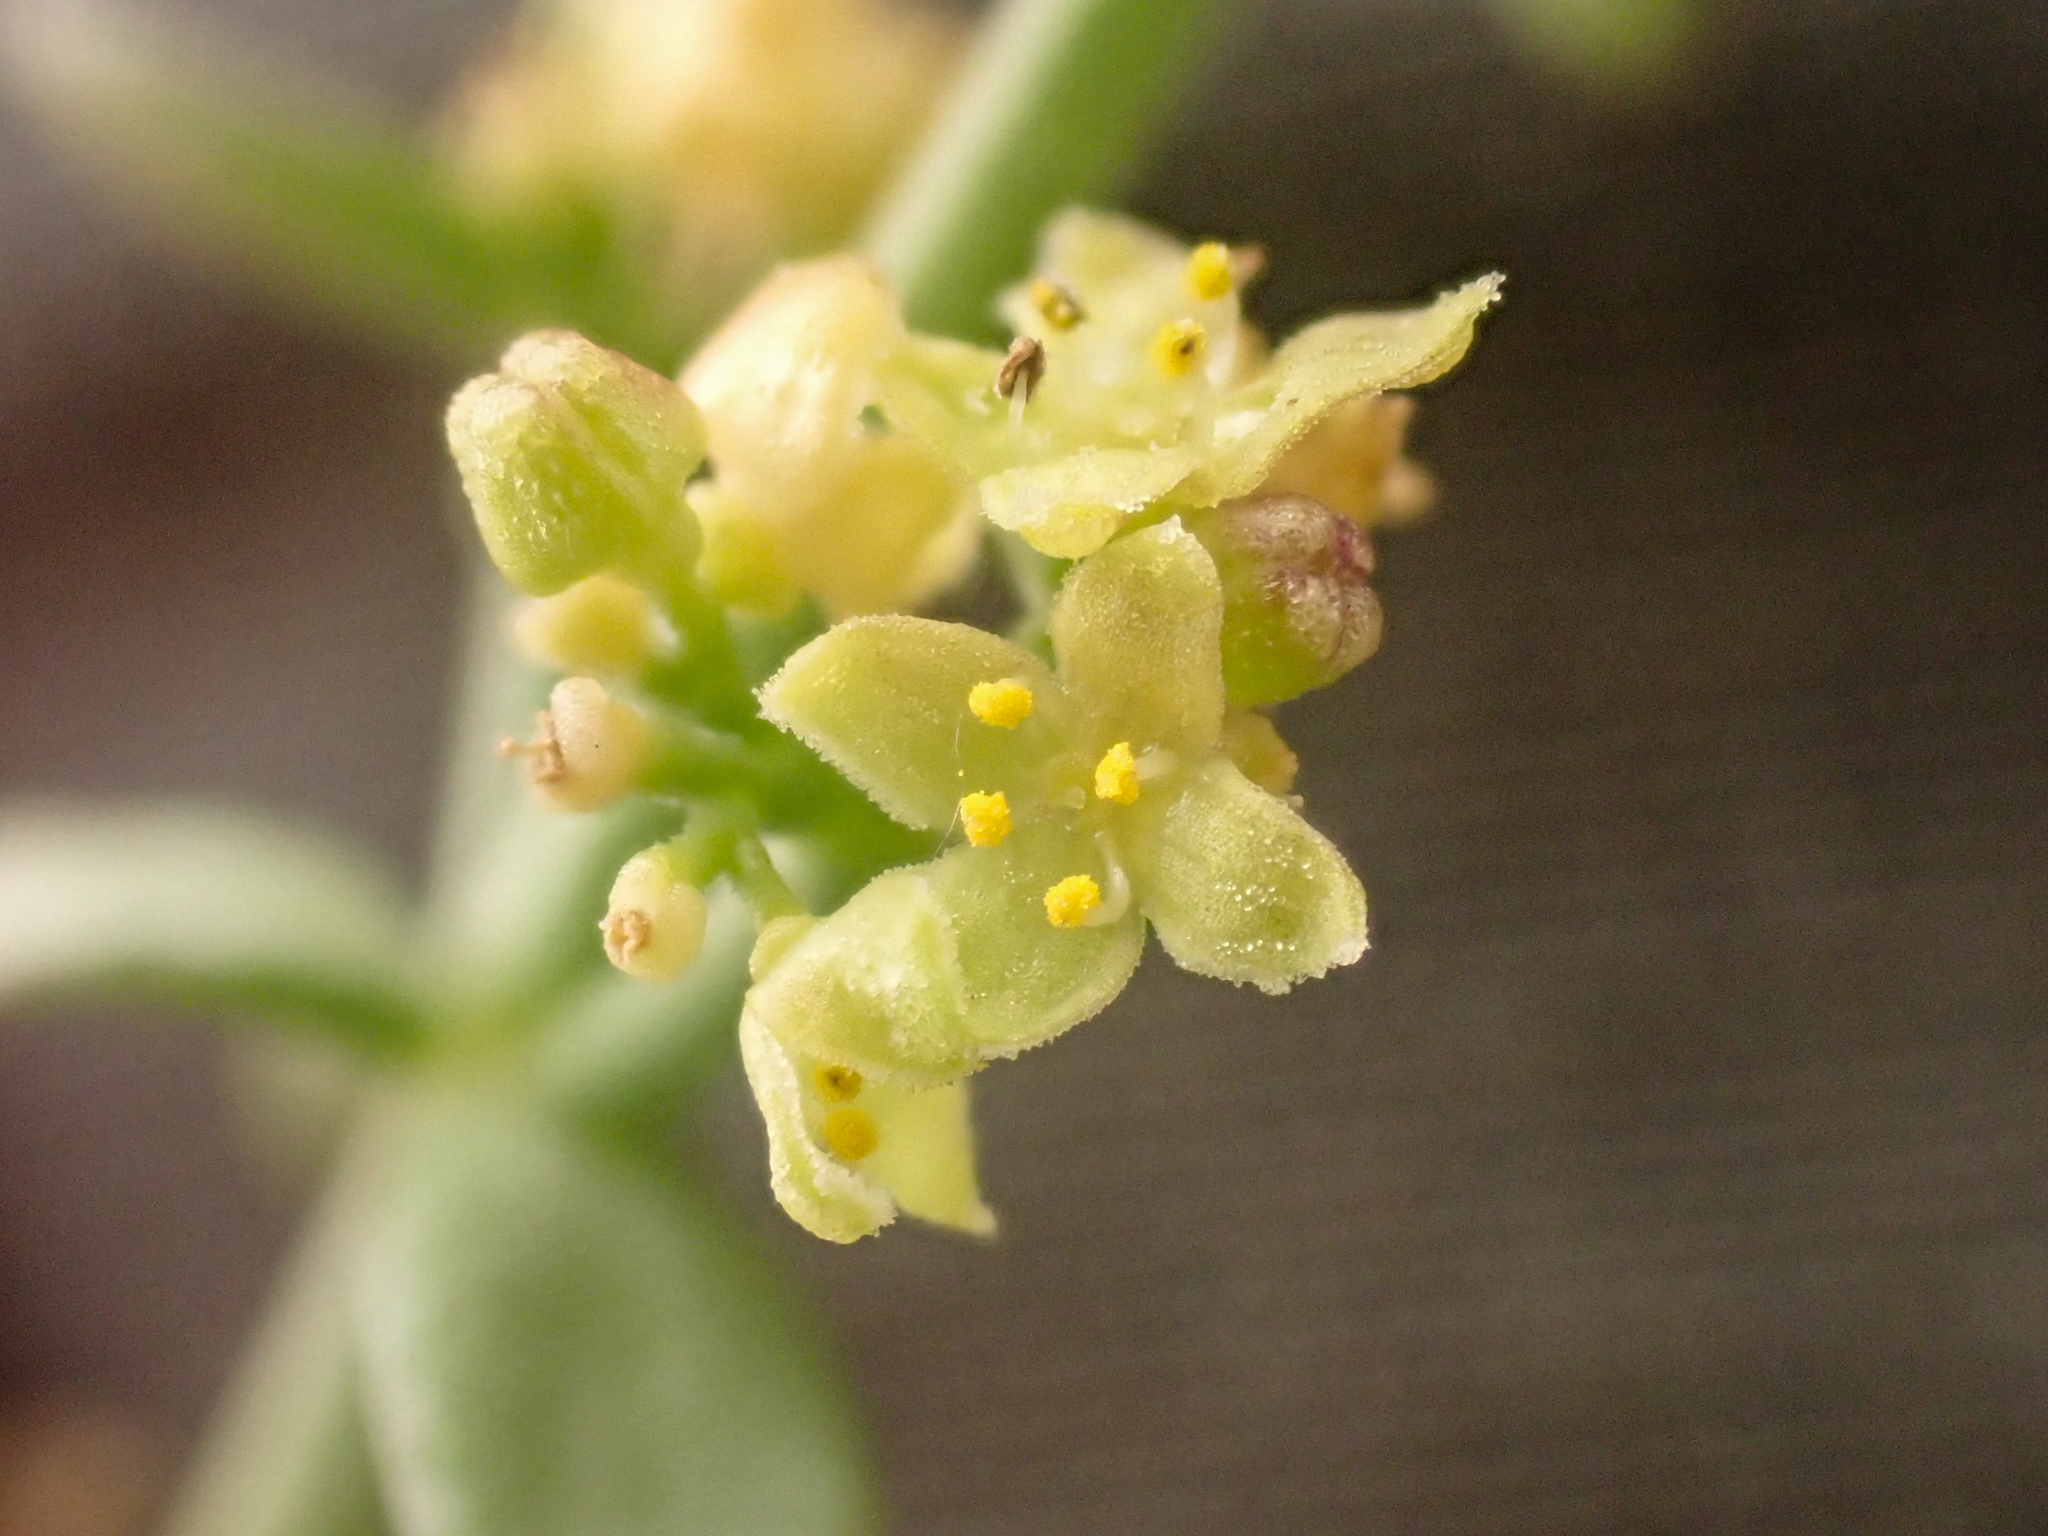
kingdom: Plantae
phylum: Tracheophyta
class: Magnoliopsida
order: Gentianales
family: Rubiaceae
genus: Galium
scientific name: Galium glabrescens
